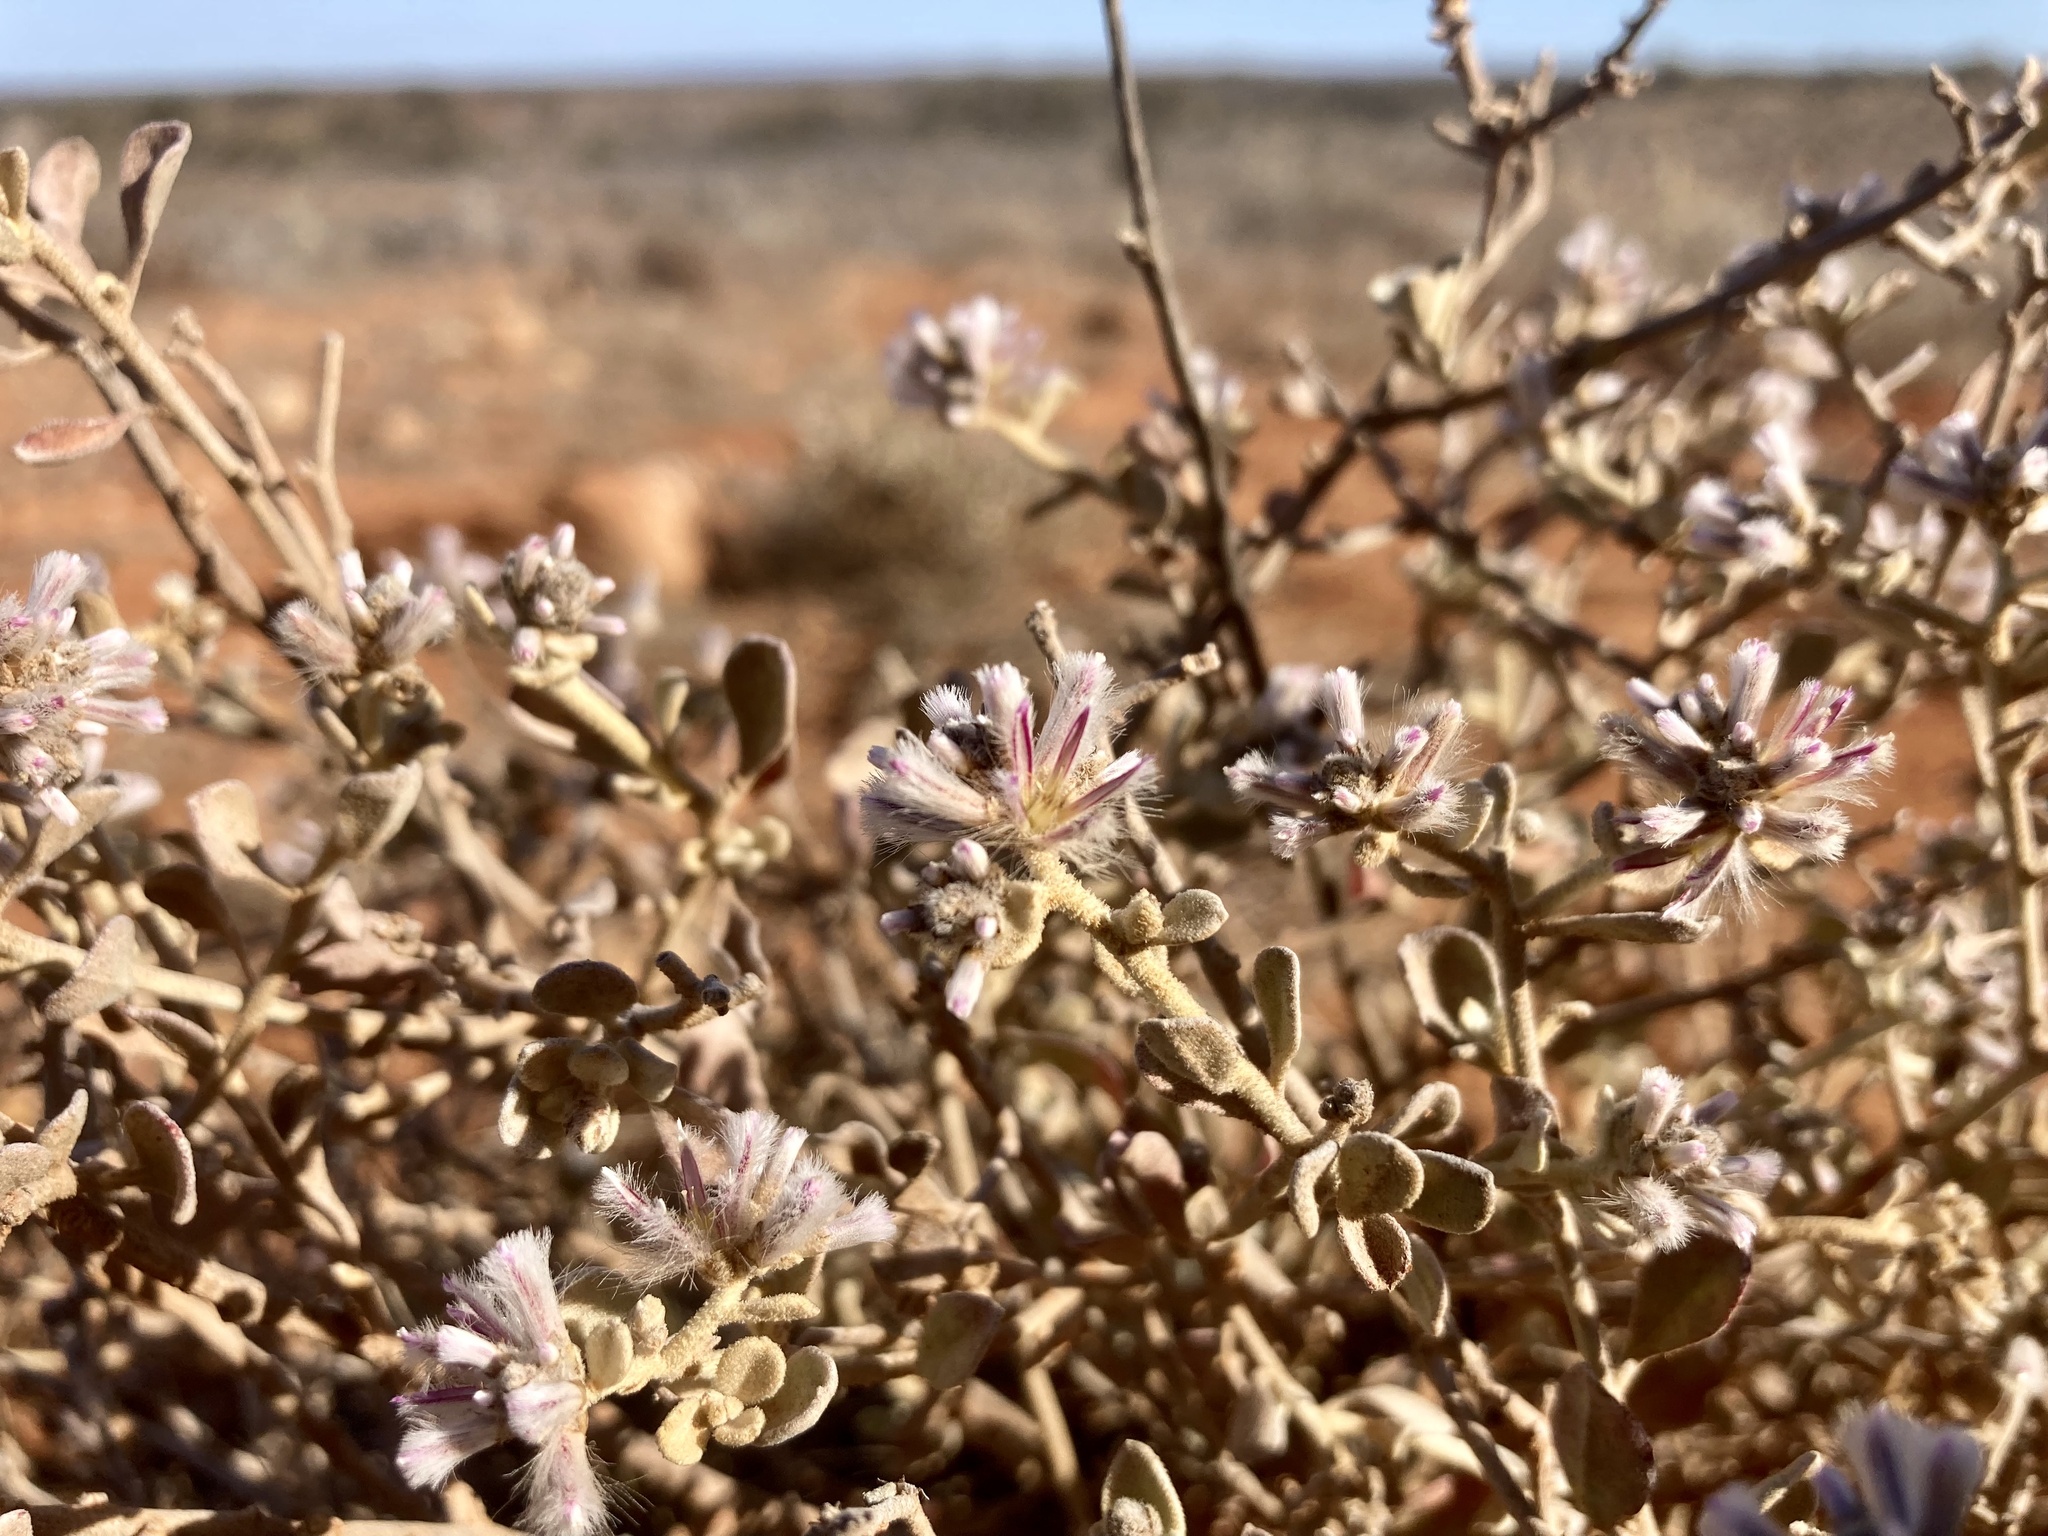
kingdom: Plantae
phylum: Tracheophyta
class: Magnoliopsida
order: Caryophyllales
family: Amaranthaceae
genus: Ptilotus
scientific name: Ptilotus obovatus
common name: Cottonbush
